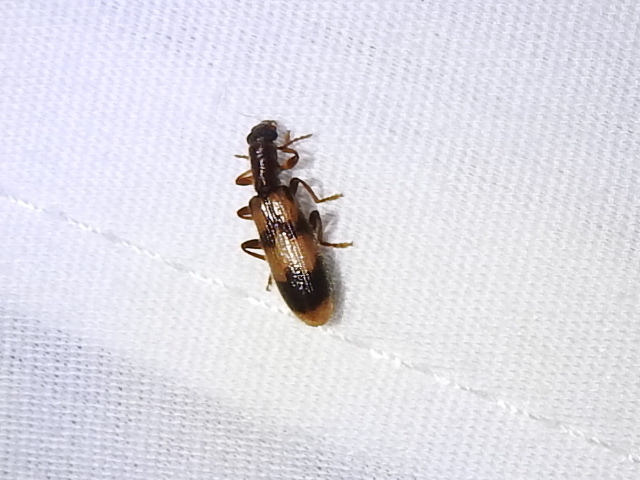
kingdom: Animalia
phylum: Arthropoda
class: Insecta
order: Coleoptera
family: Cleridae
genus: Cymatodera
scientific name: Cymatodera sirpata
